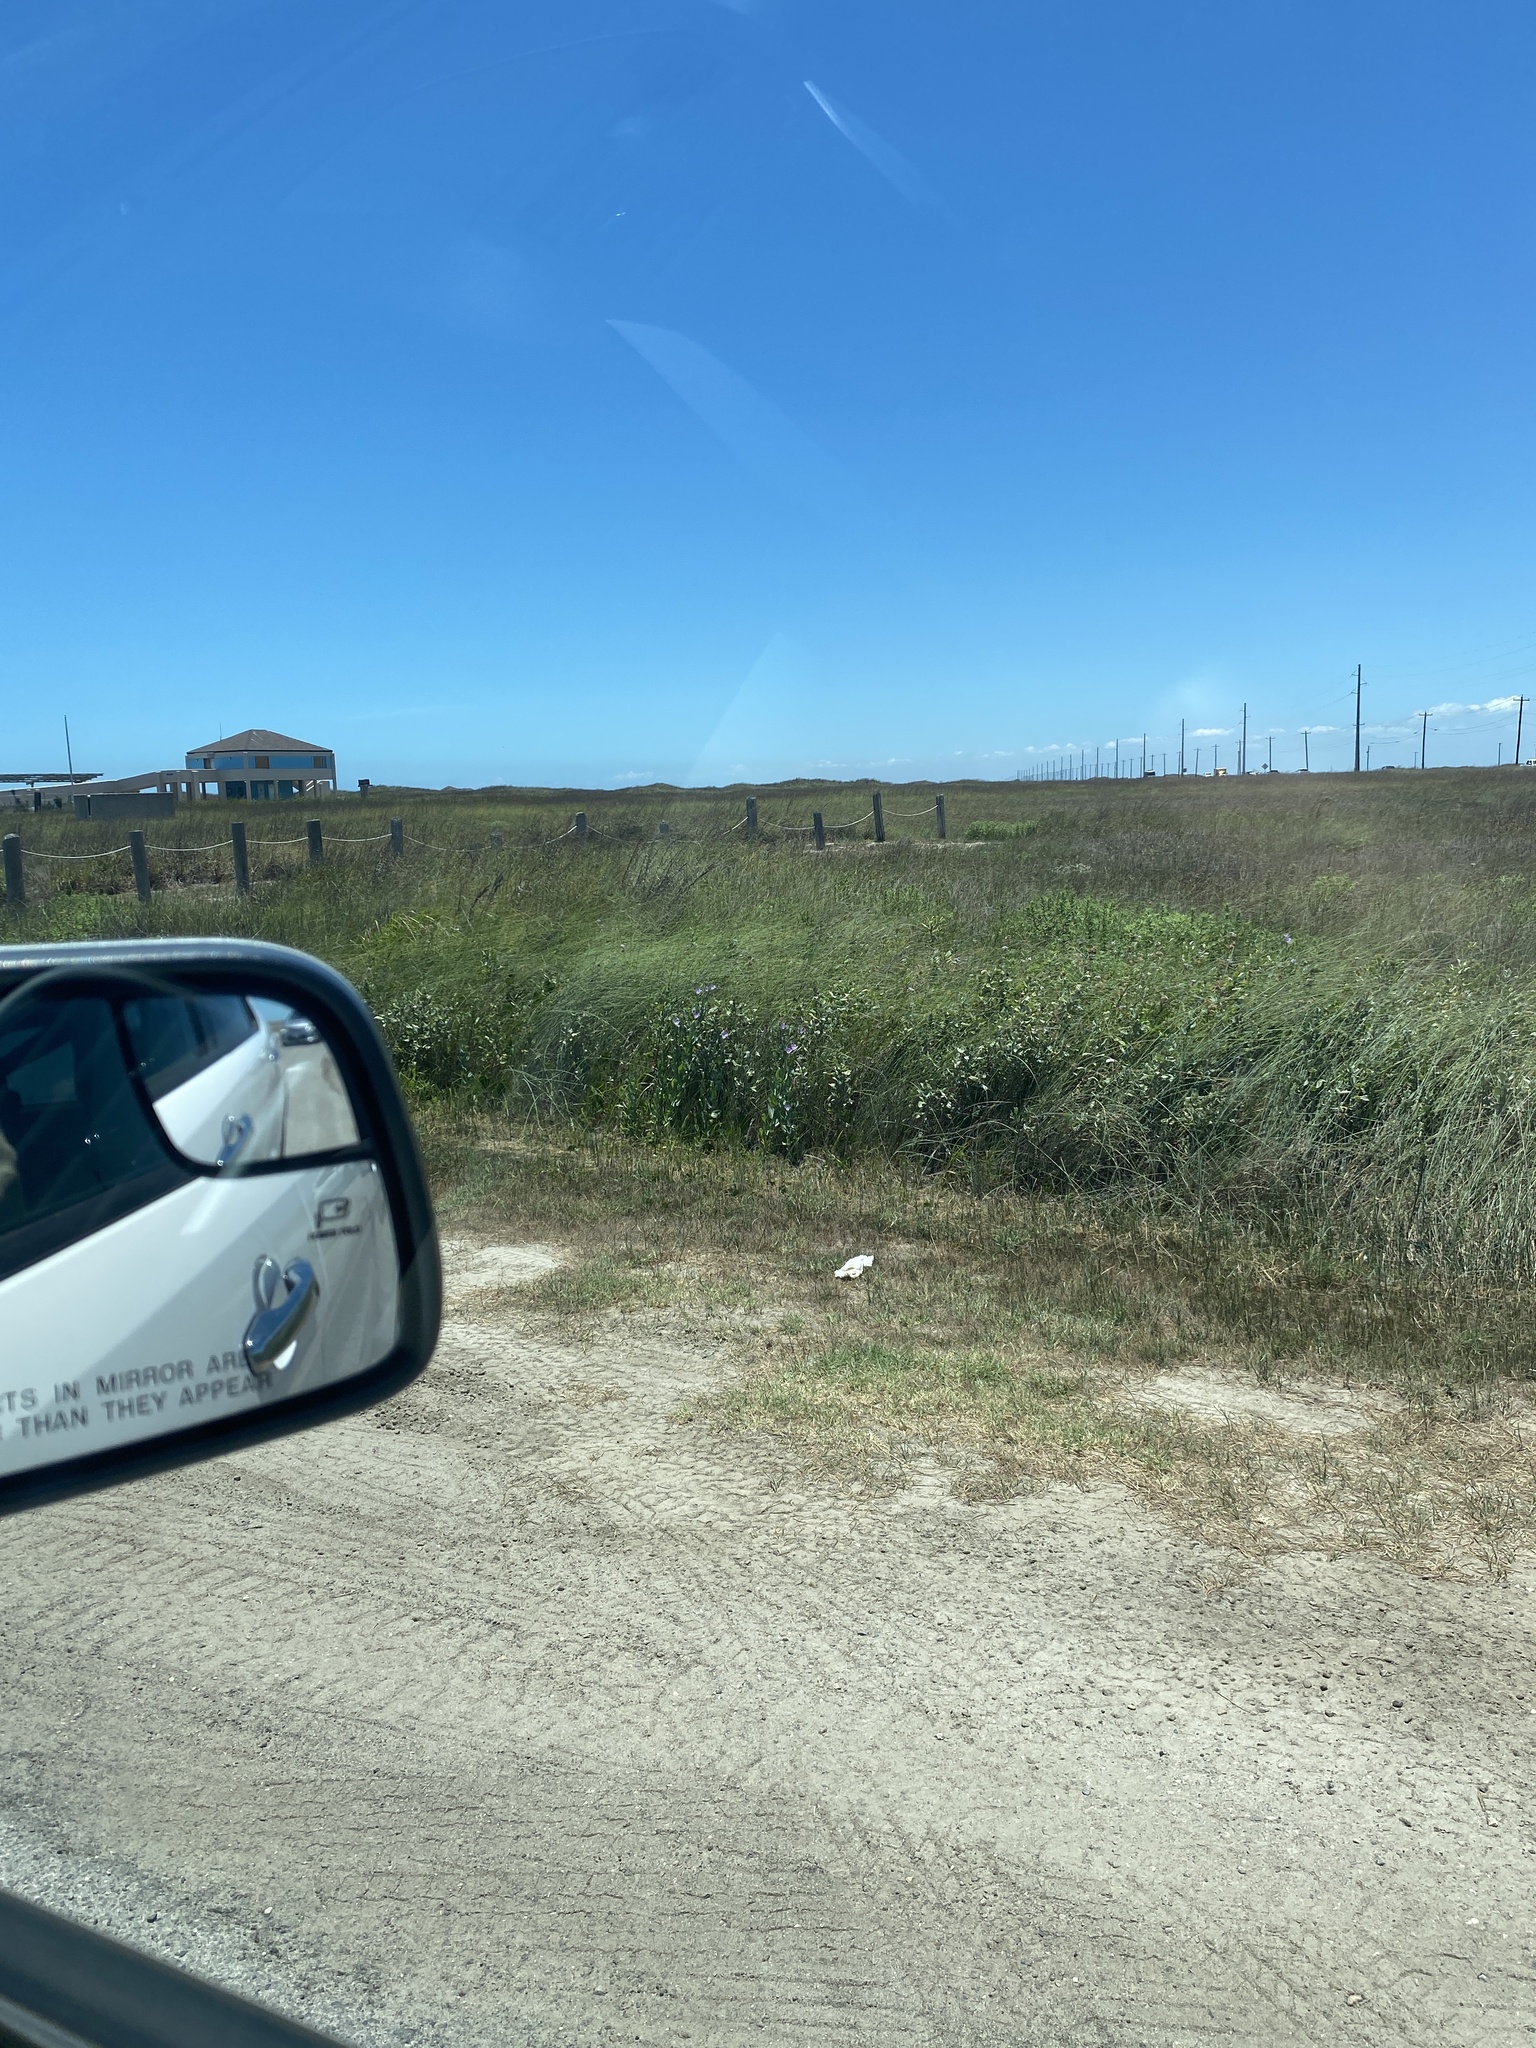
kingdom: Plantae
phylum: Tracheophyta
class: Magnoliopsida
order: Gentianales
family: Gentianaceae
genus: Eustoma
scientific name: Eustoma exaltatum
